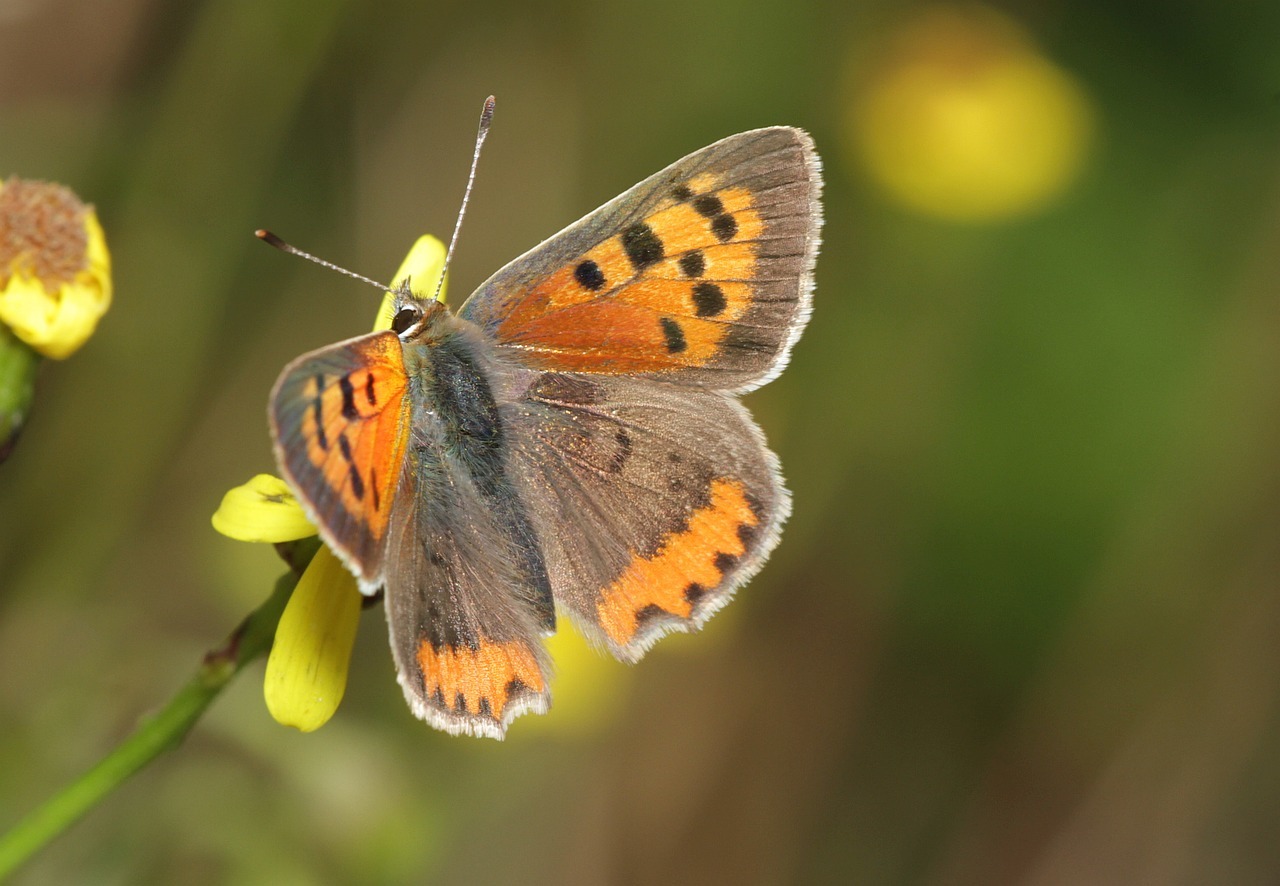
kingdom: Animalia
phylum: Arthropoda
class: Insecta
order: Lepidoptera
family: Lycaenidae
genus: Lycaena
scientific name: Lycaena phlaeas
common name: Small copper
